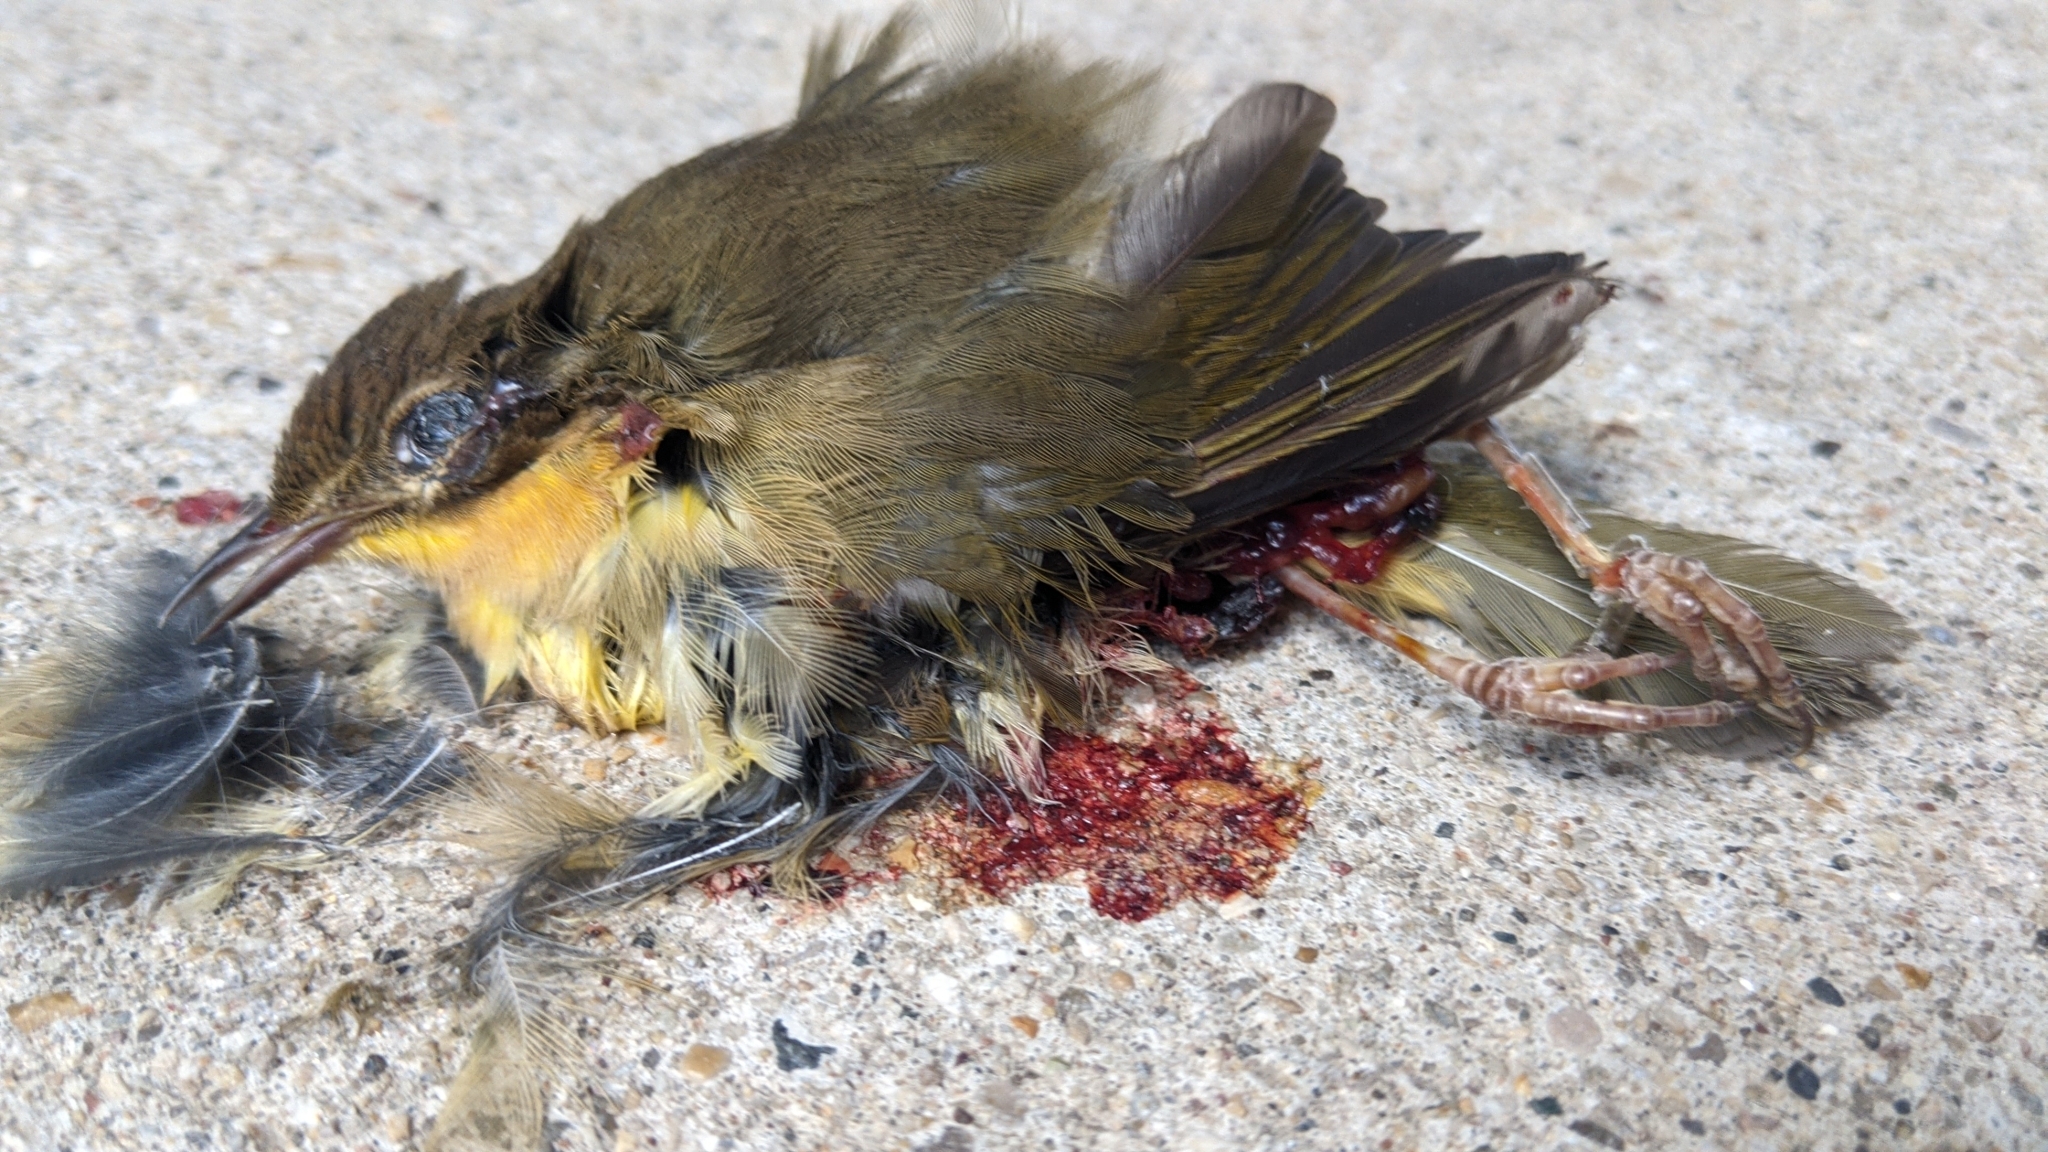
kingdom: Animalia
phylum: Chordata
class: Aves
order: Passeriformes
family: Parulidae
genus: Geothlypis
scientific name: Geothlypis trichas
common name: Common yellowthroat
